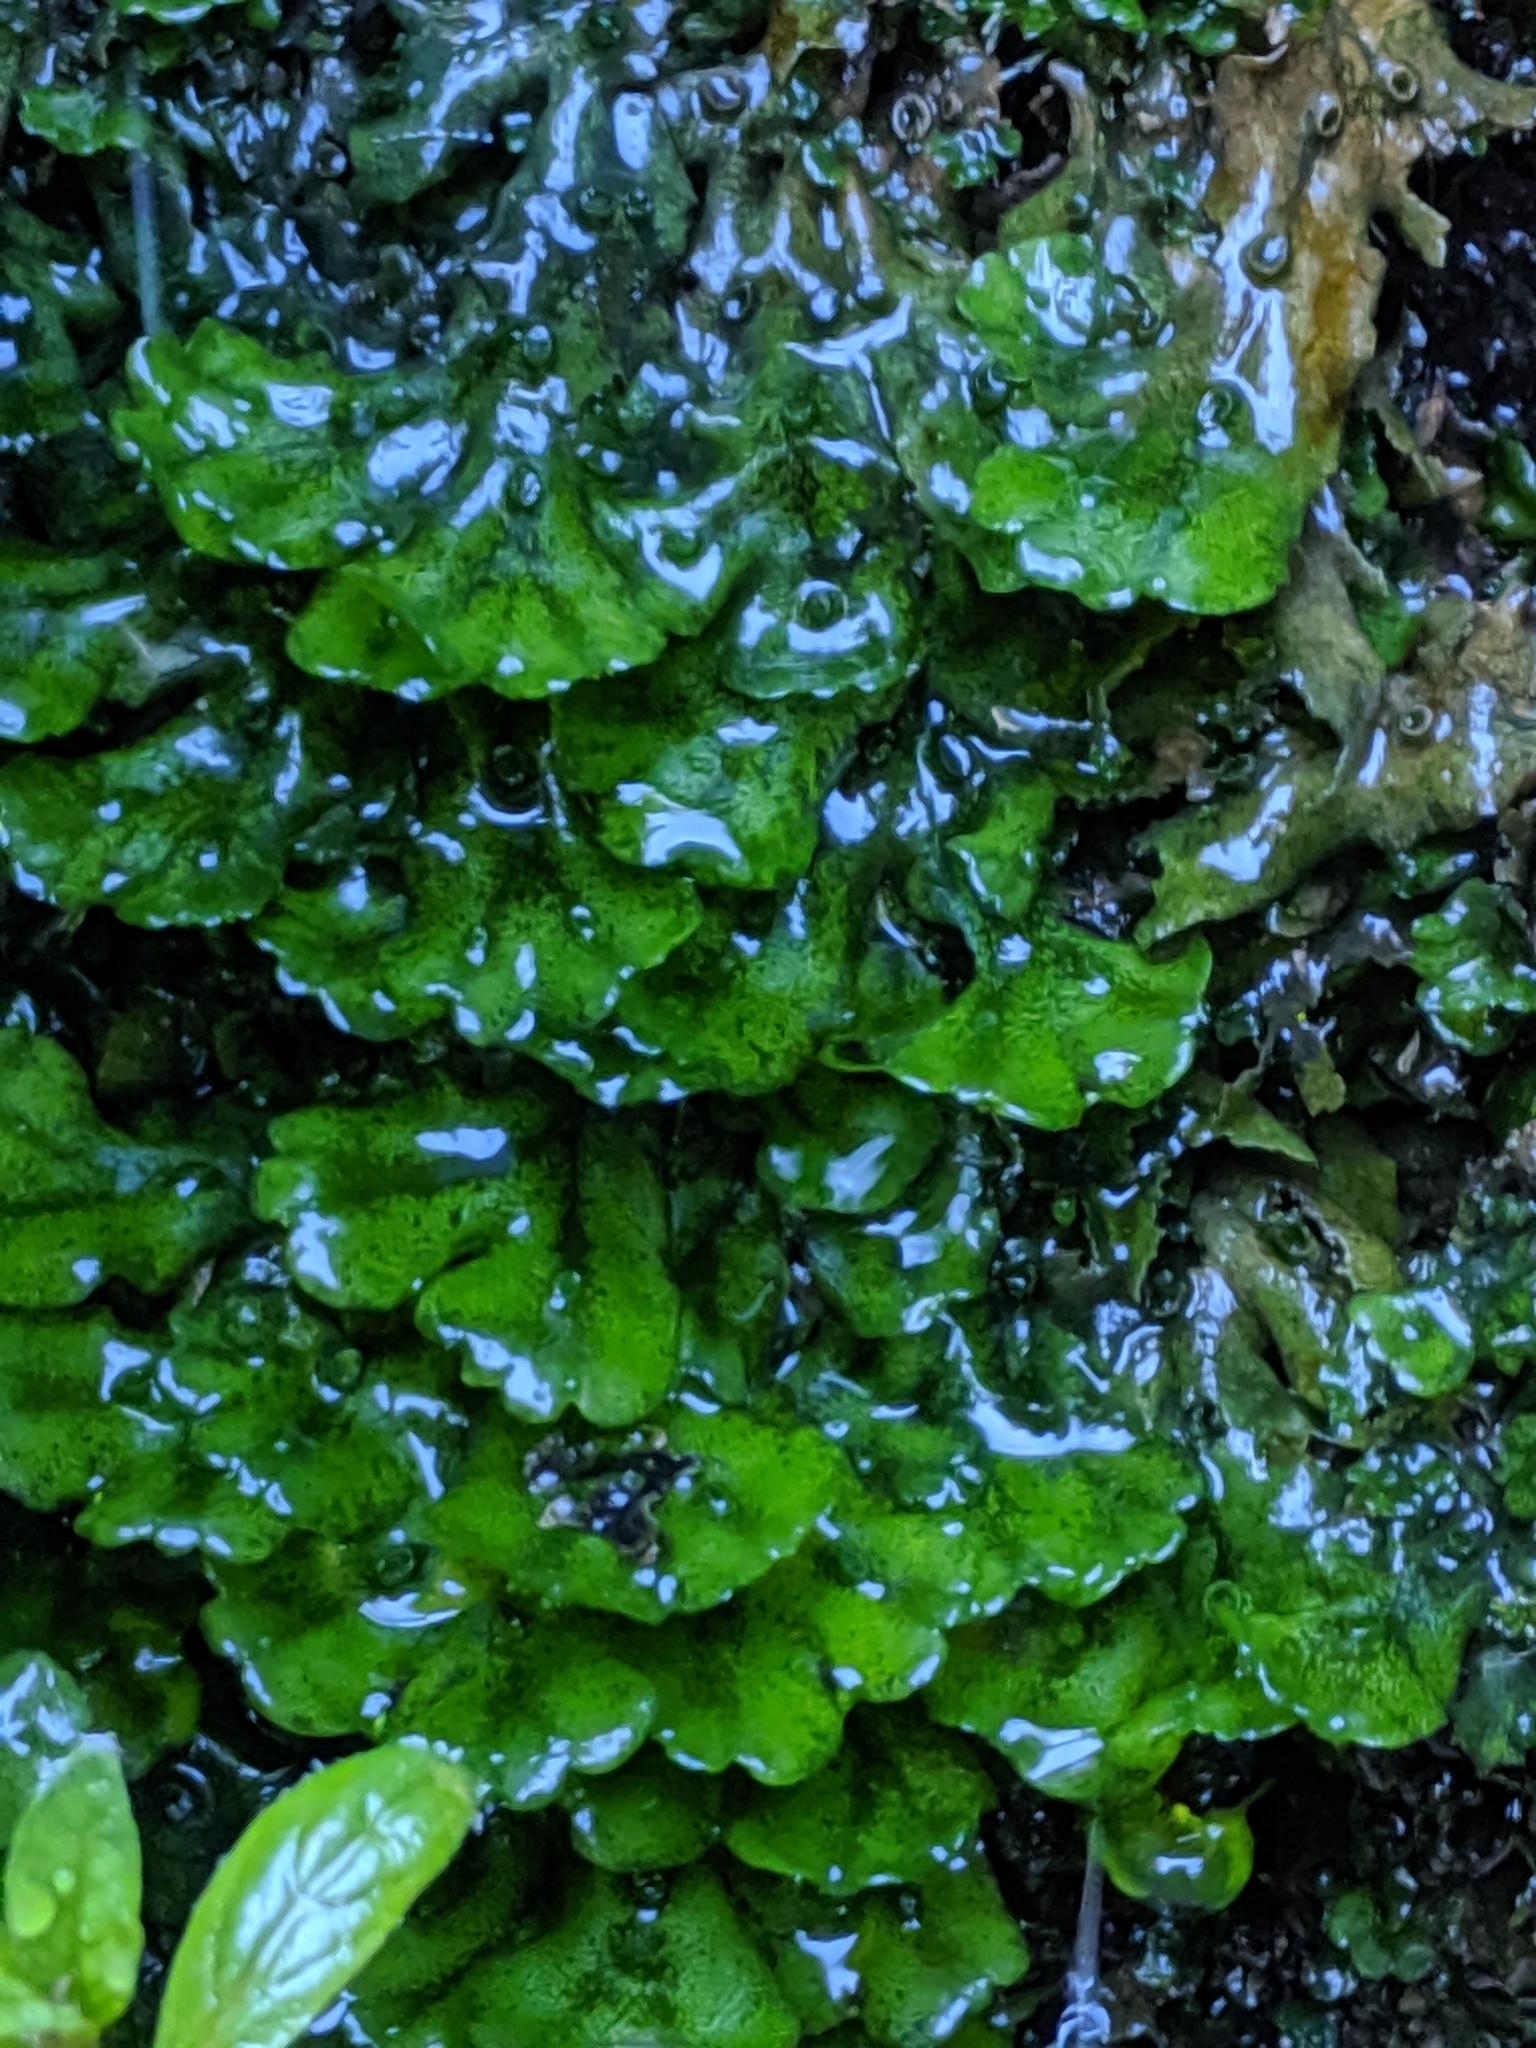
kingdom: Plantae
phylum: Marchantiophyta
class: Marchantiopsida
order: Marchantiales
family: Marchantiaceae
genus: Marchantia
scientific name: Marchantia polymorpha
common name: Common liverwort
